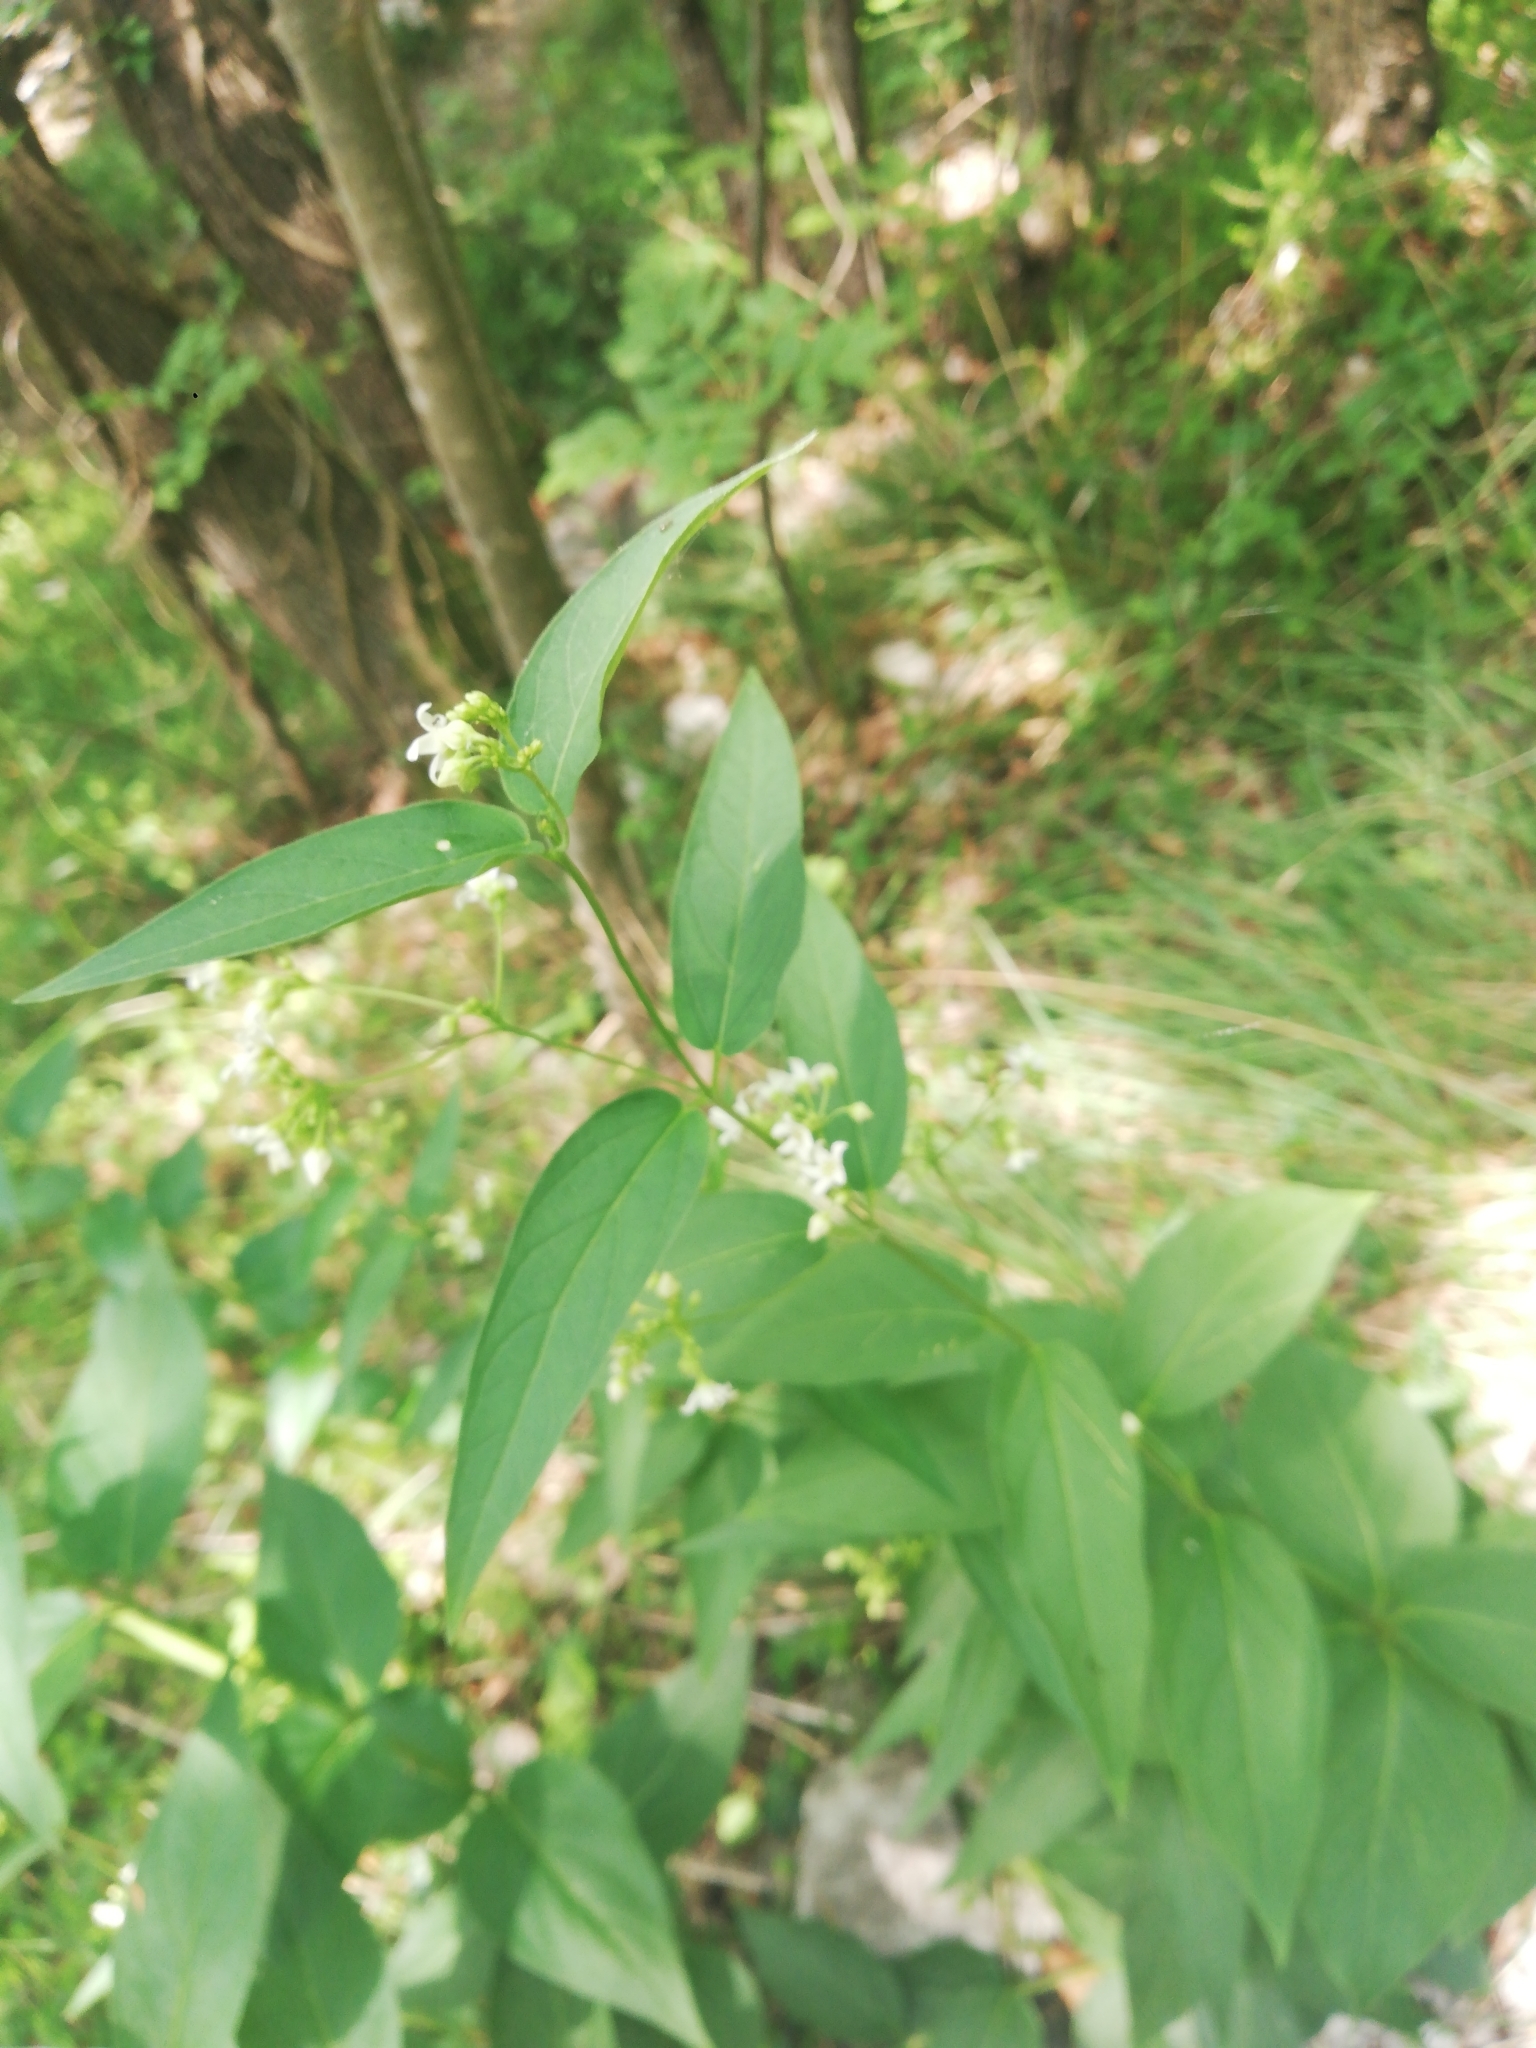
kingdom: Plantae
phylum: Tracheophyta
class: Magnoliopsida
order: Gentianales
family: Apocynaceae
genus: Vincetoxicum
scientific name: Vincetoxicum hirundinaria
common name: White swallowwort
